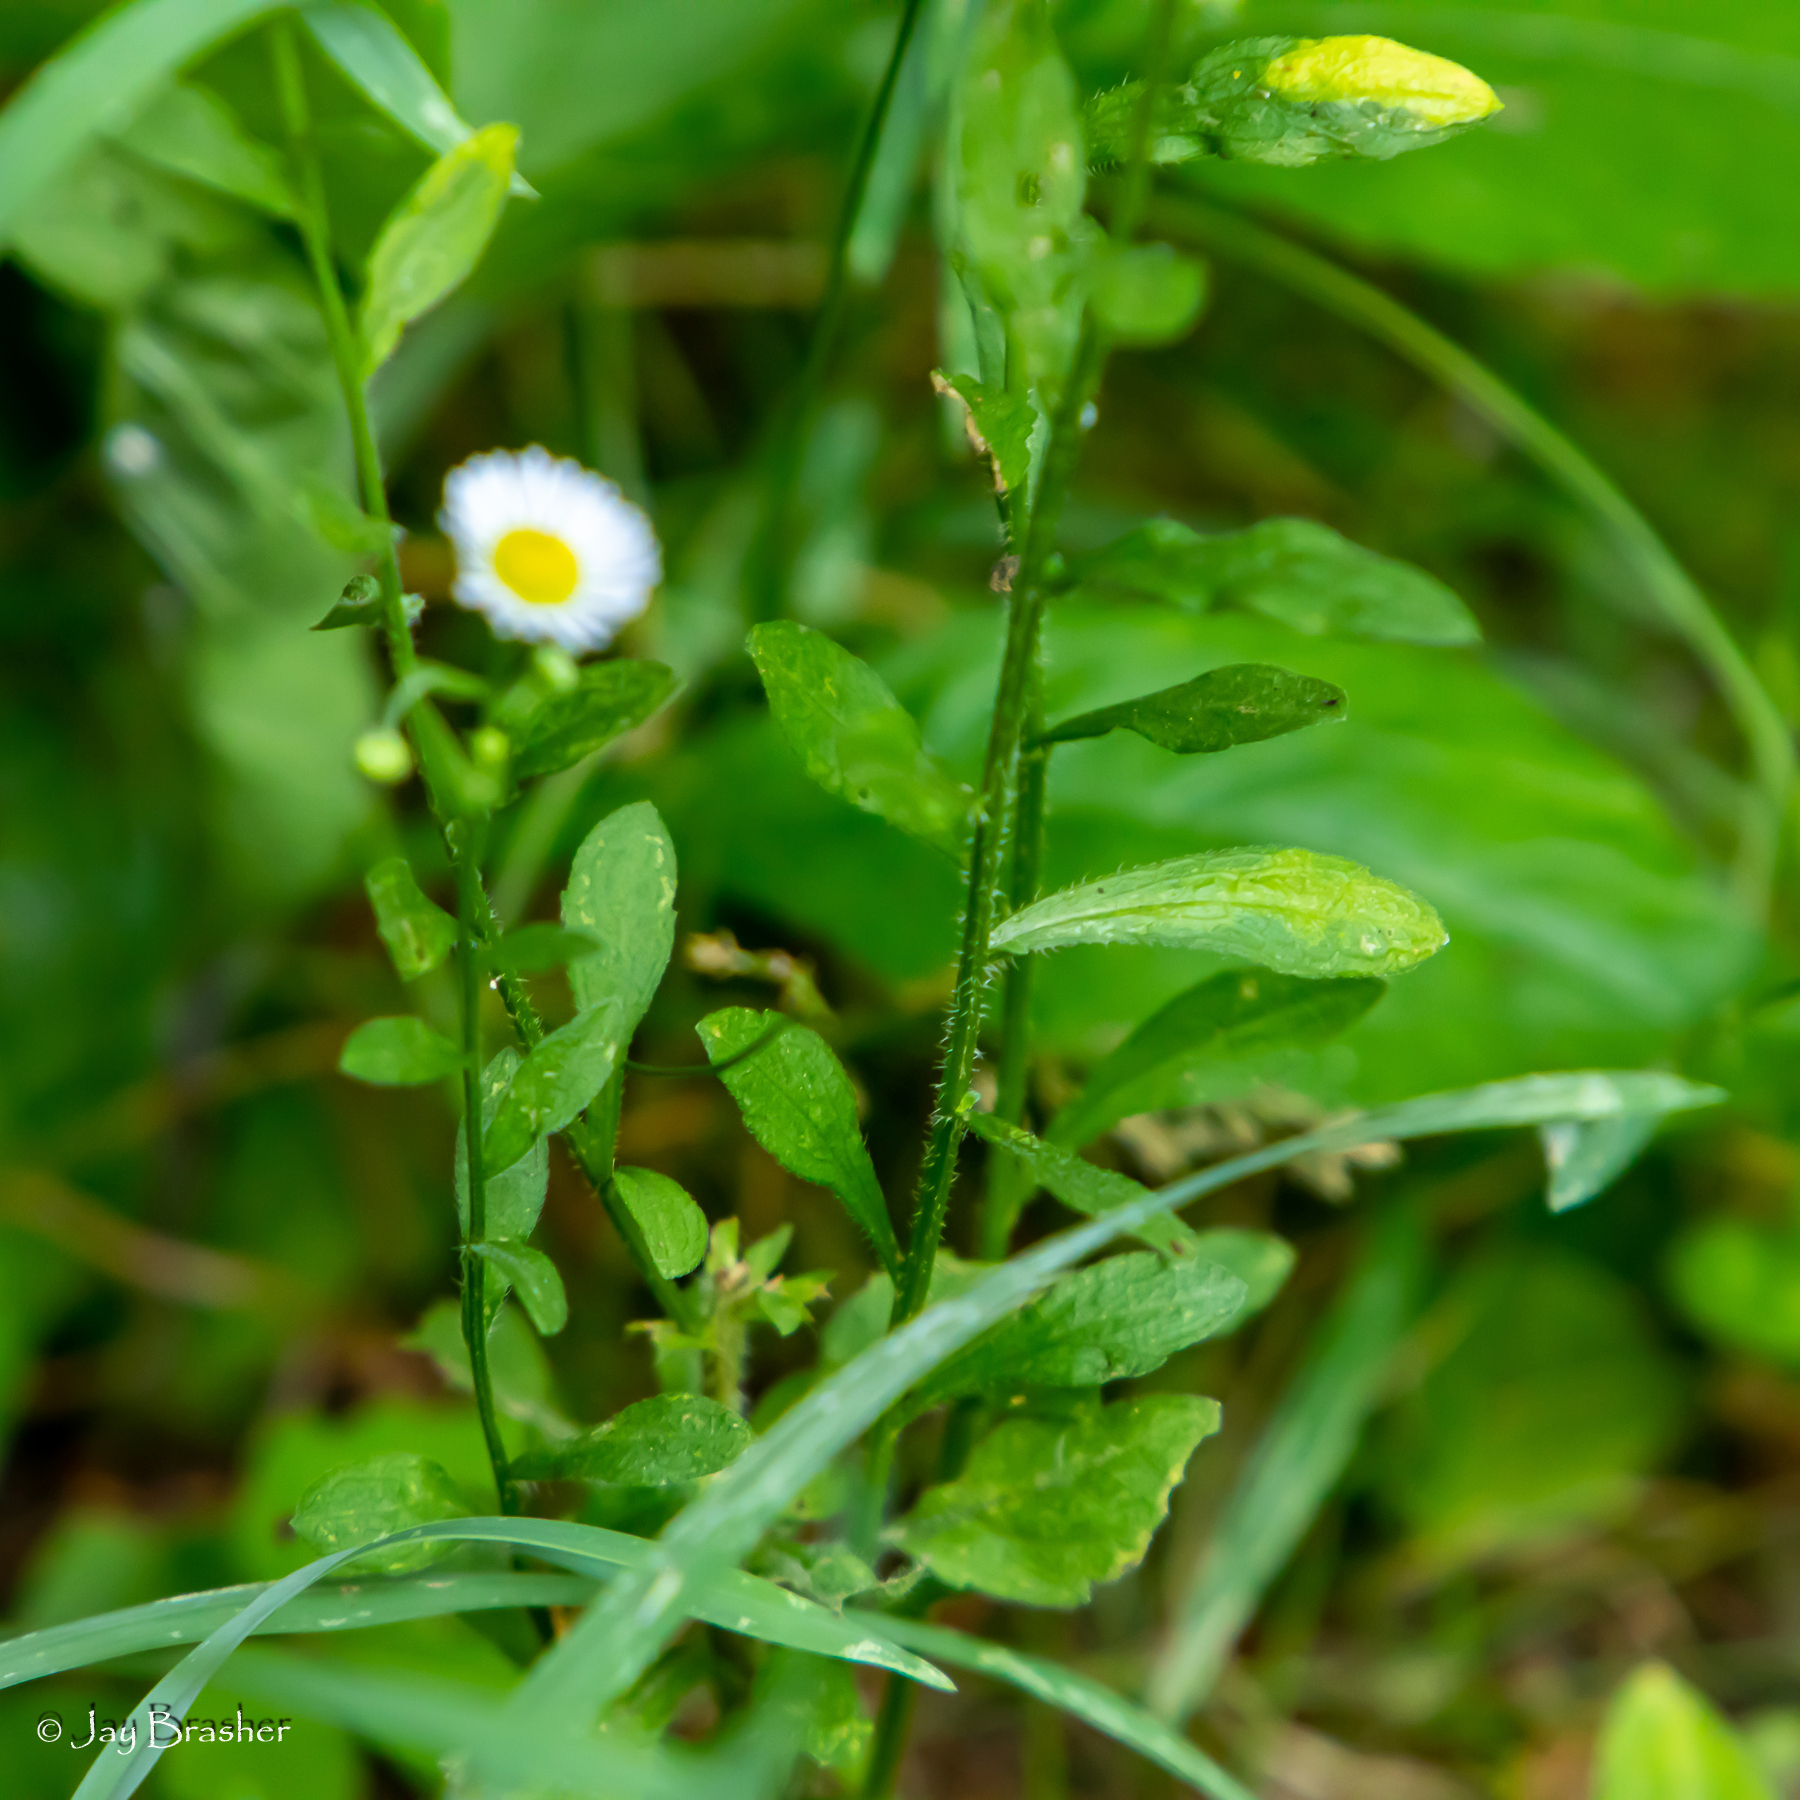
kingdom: Plantae
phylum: Tracheophyta
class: Magnoliopsida
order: Asterales
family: Asteraceae
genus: Erigeron
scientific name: Erigeron annuus
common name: Tall fleabane
